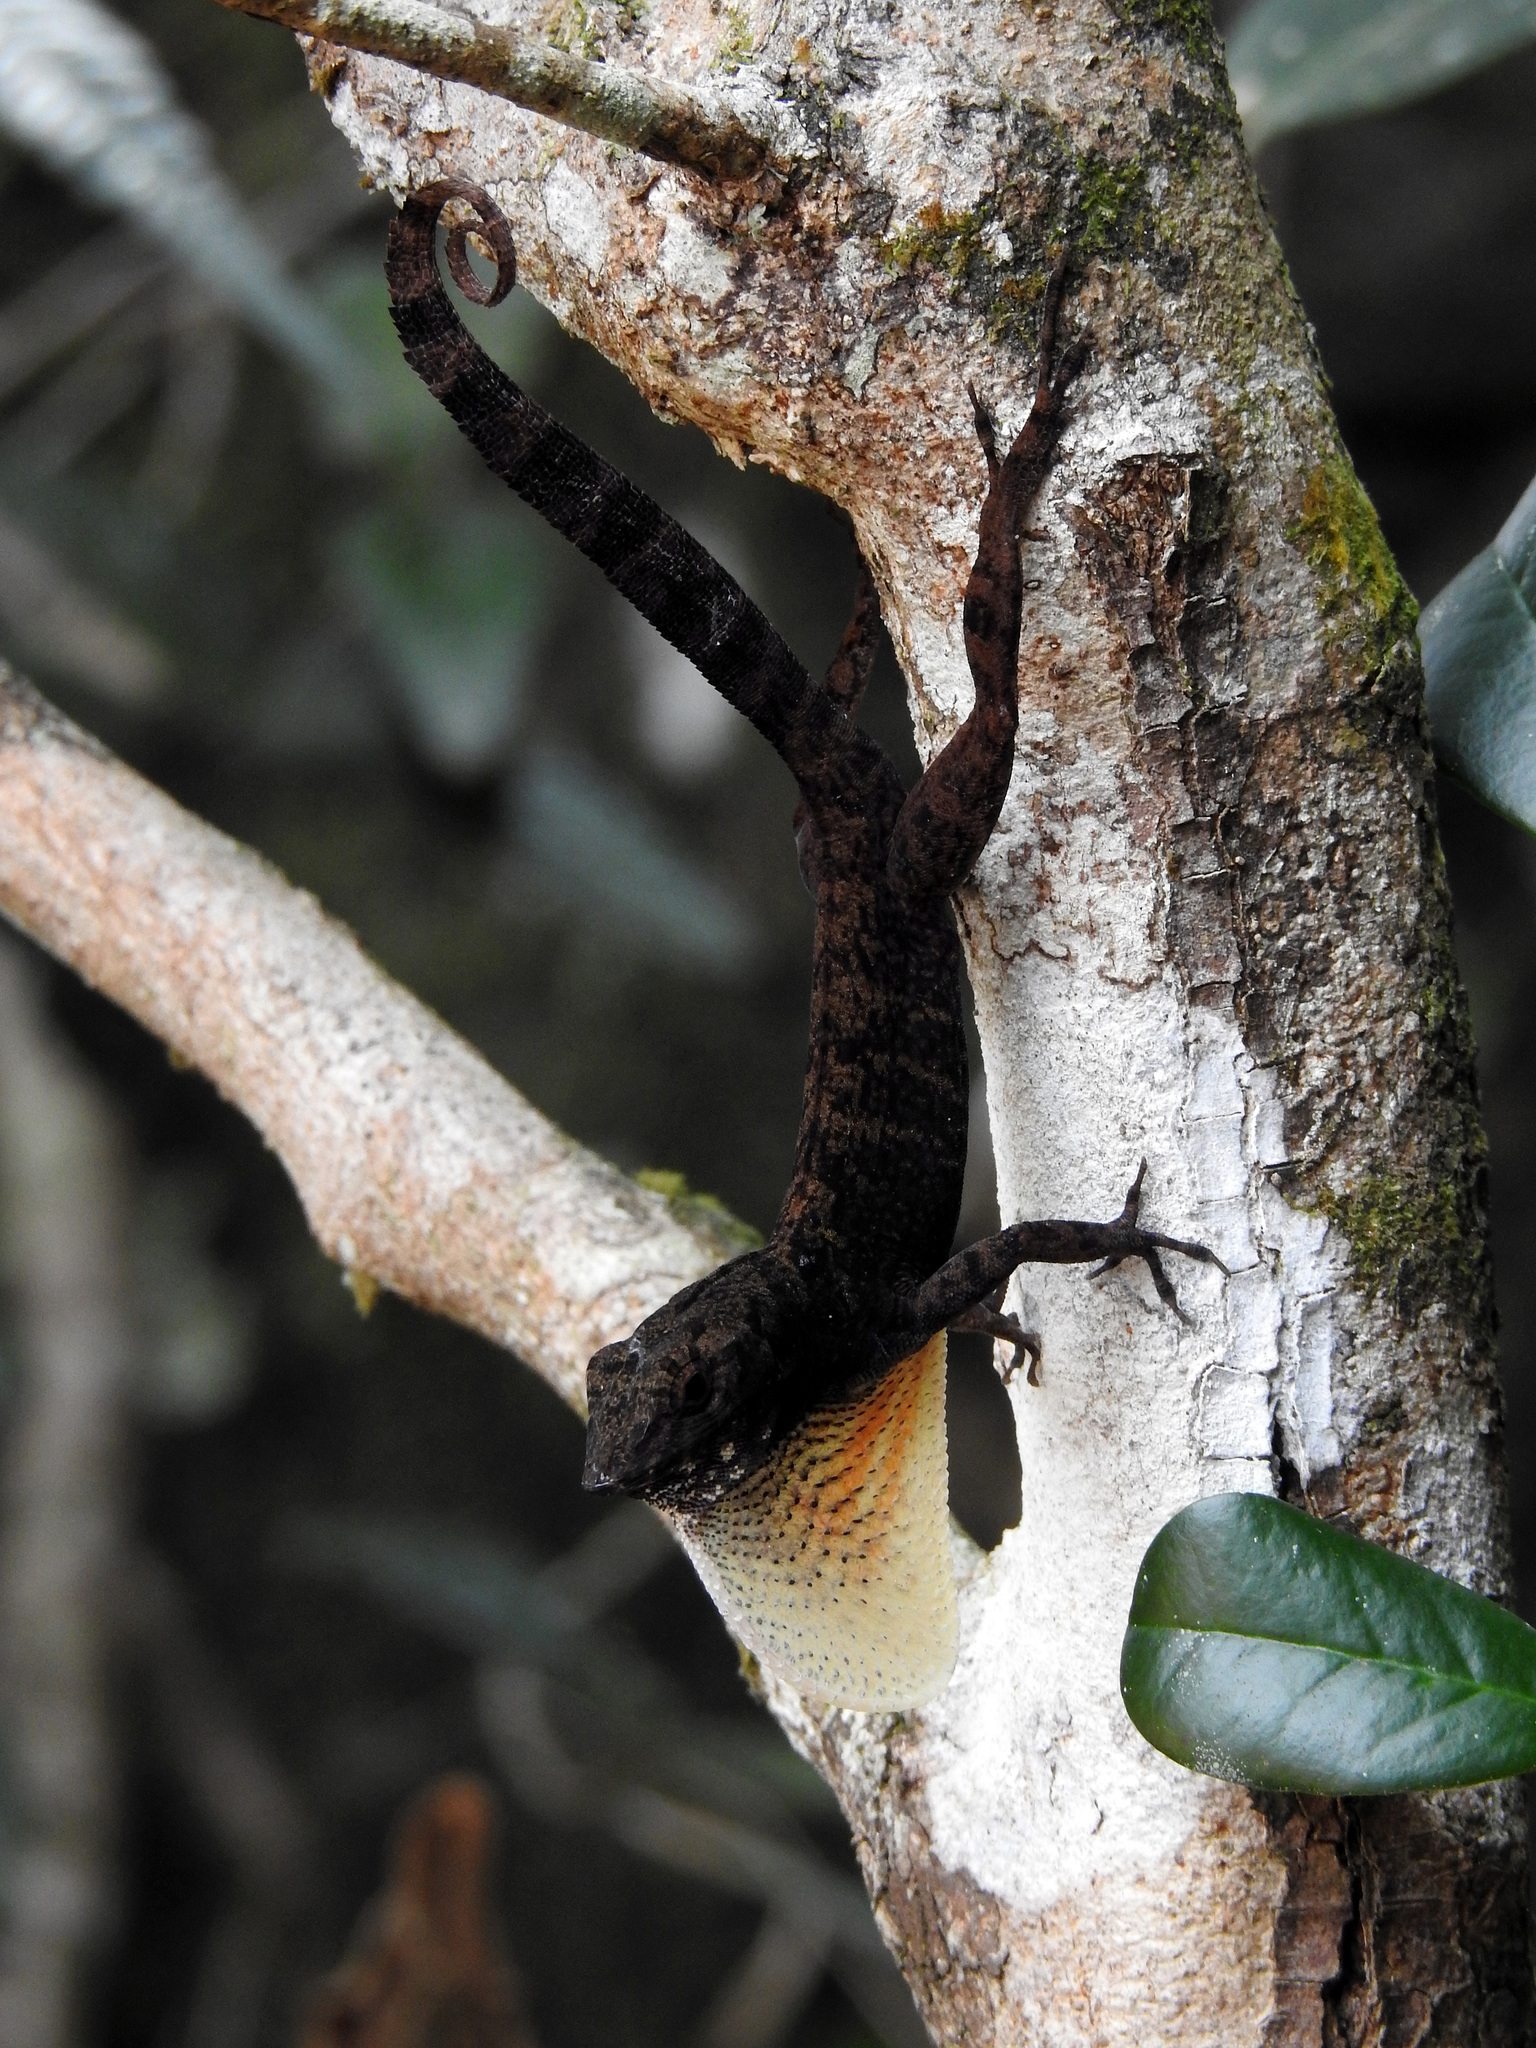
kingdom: Animalia
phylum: Chordata
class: Squamata
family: Dactyloidae
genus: Anolis
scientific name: Anolis allogus
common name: Bueycito anole
